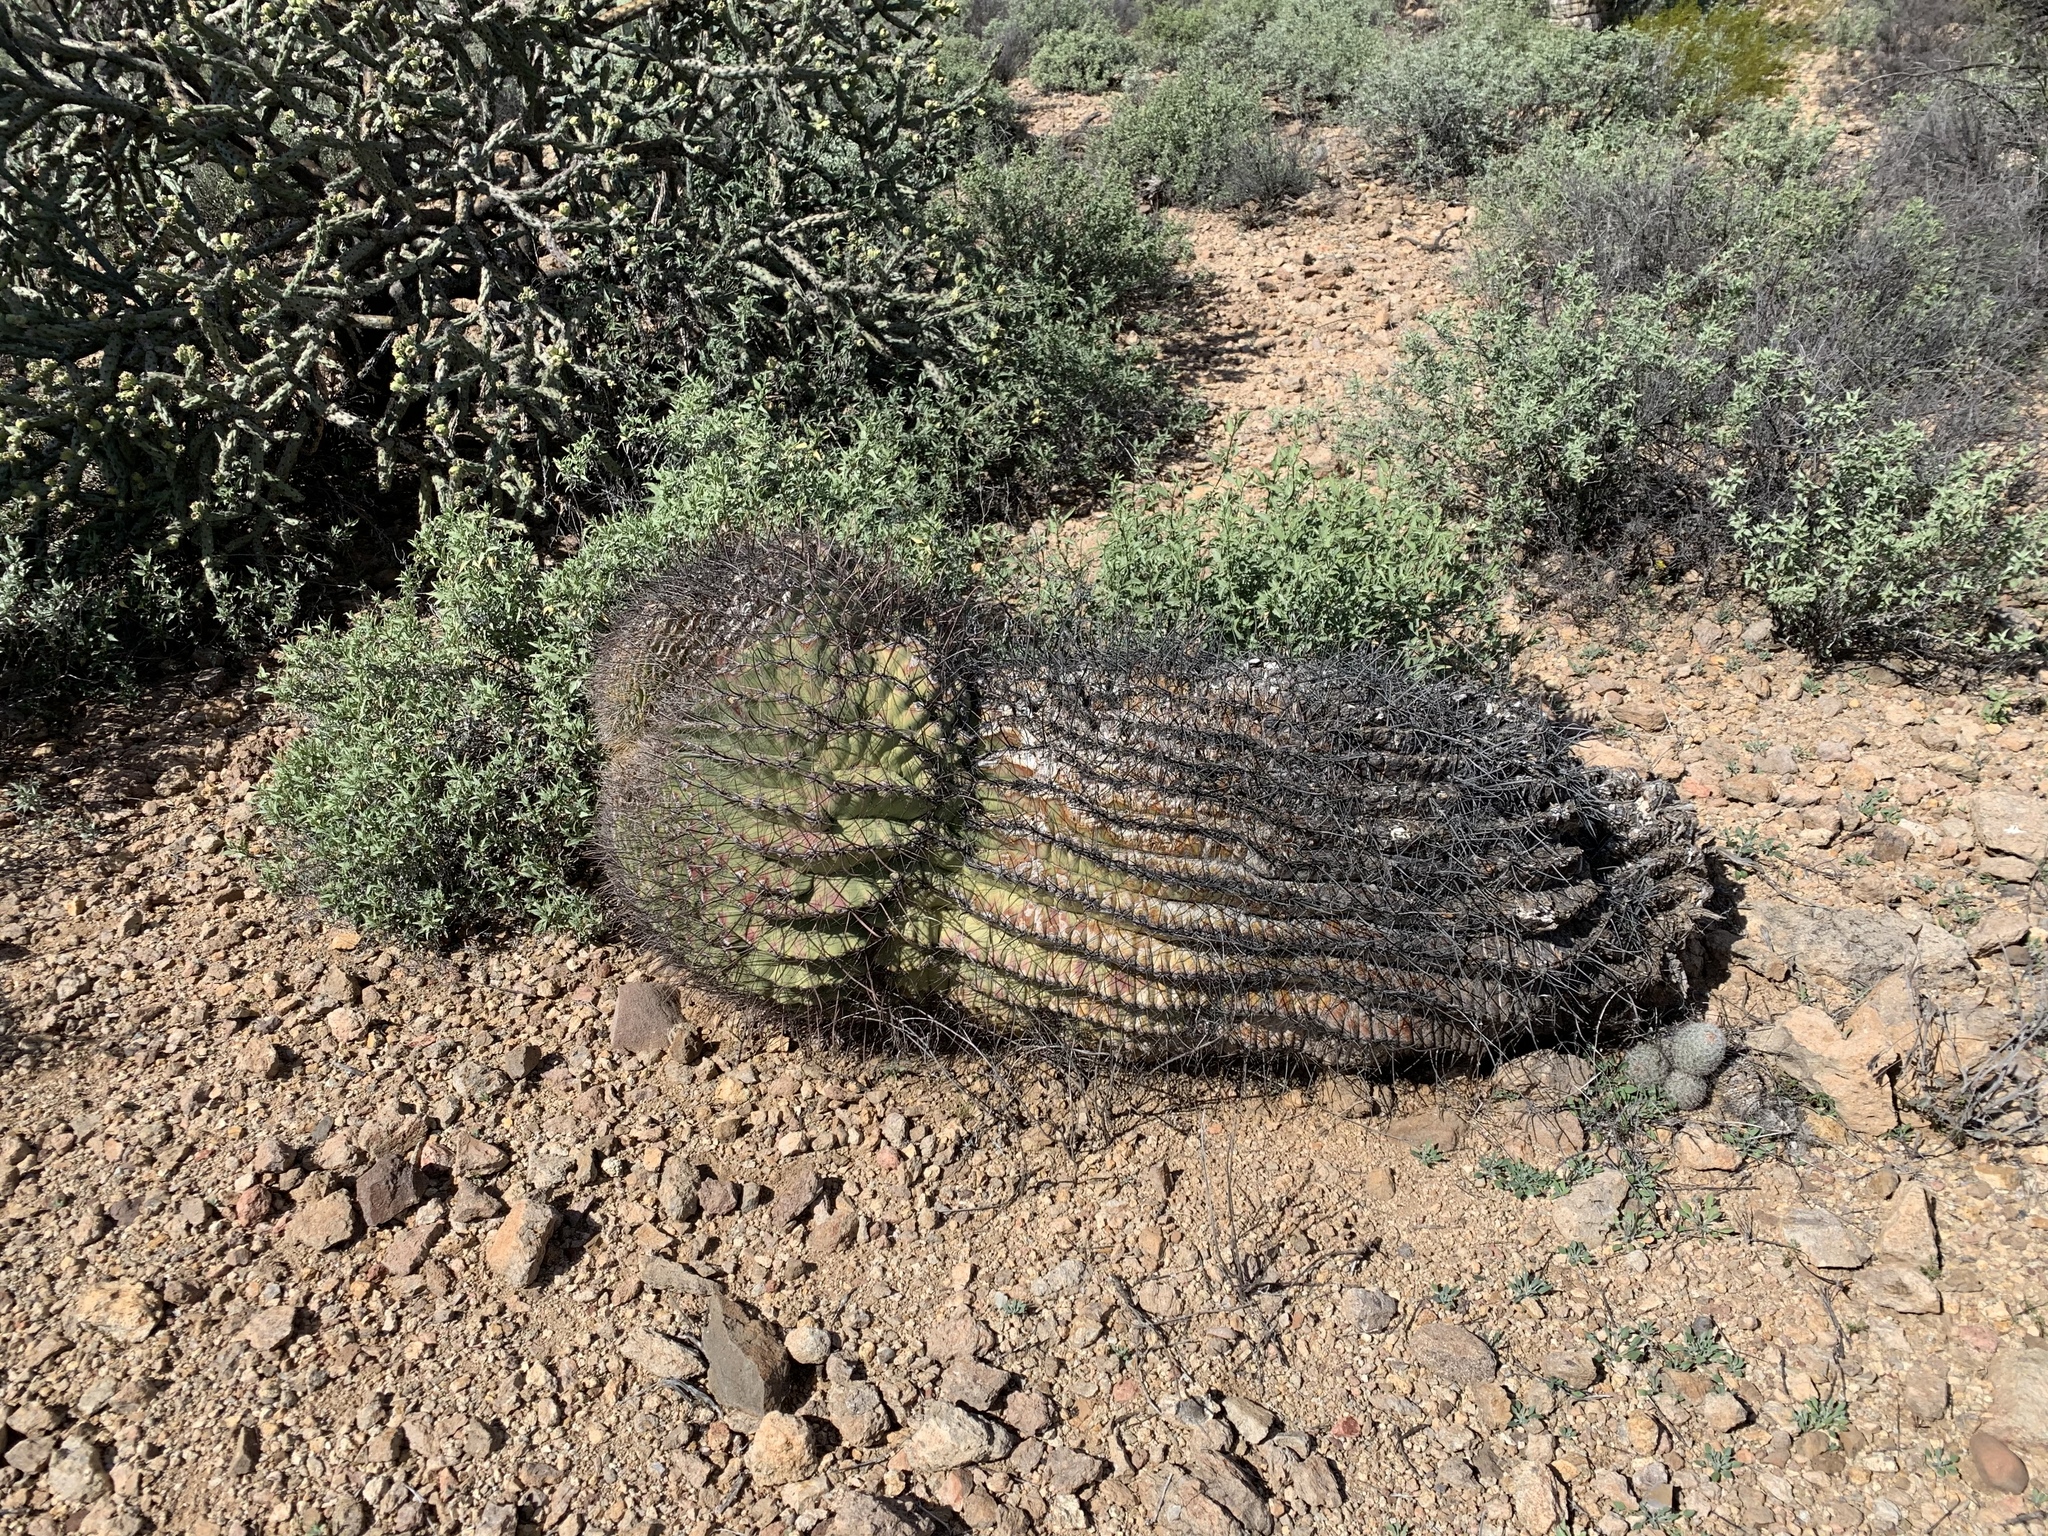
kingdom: Plantae
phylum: Tracheophyta
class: Magnoliopsida
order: Caryophyllales
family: Cactaceae
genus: Ferocactus
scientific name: Ferocactus wislizeni
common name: Candy barrel cactus
